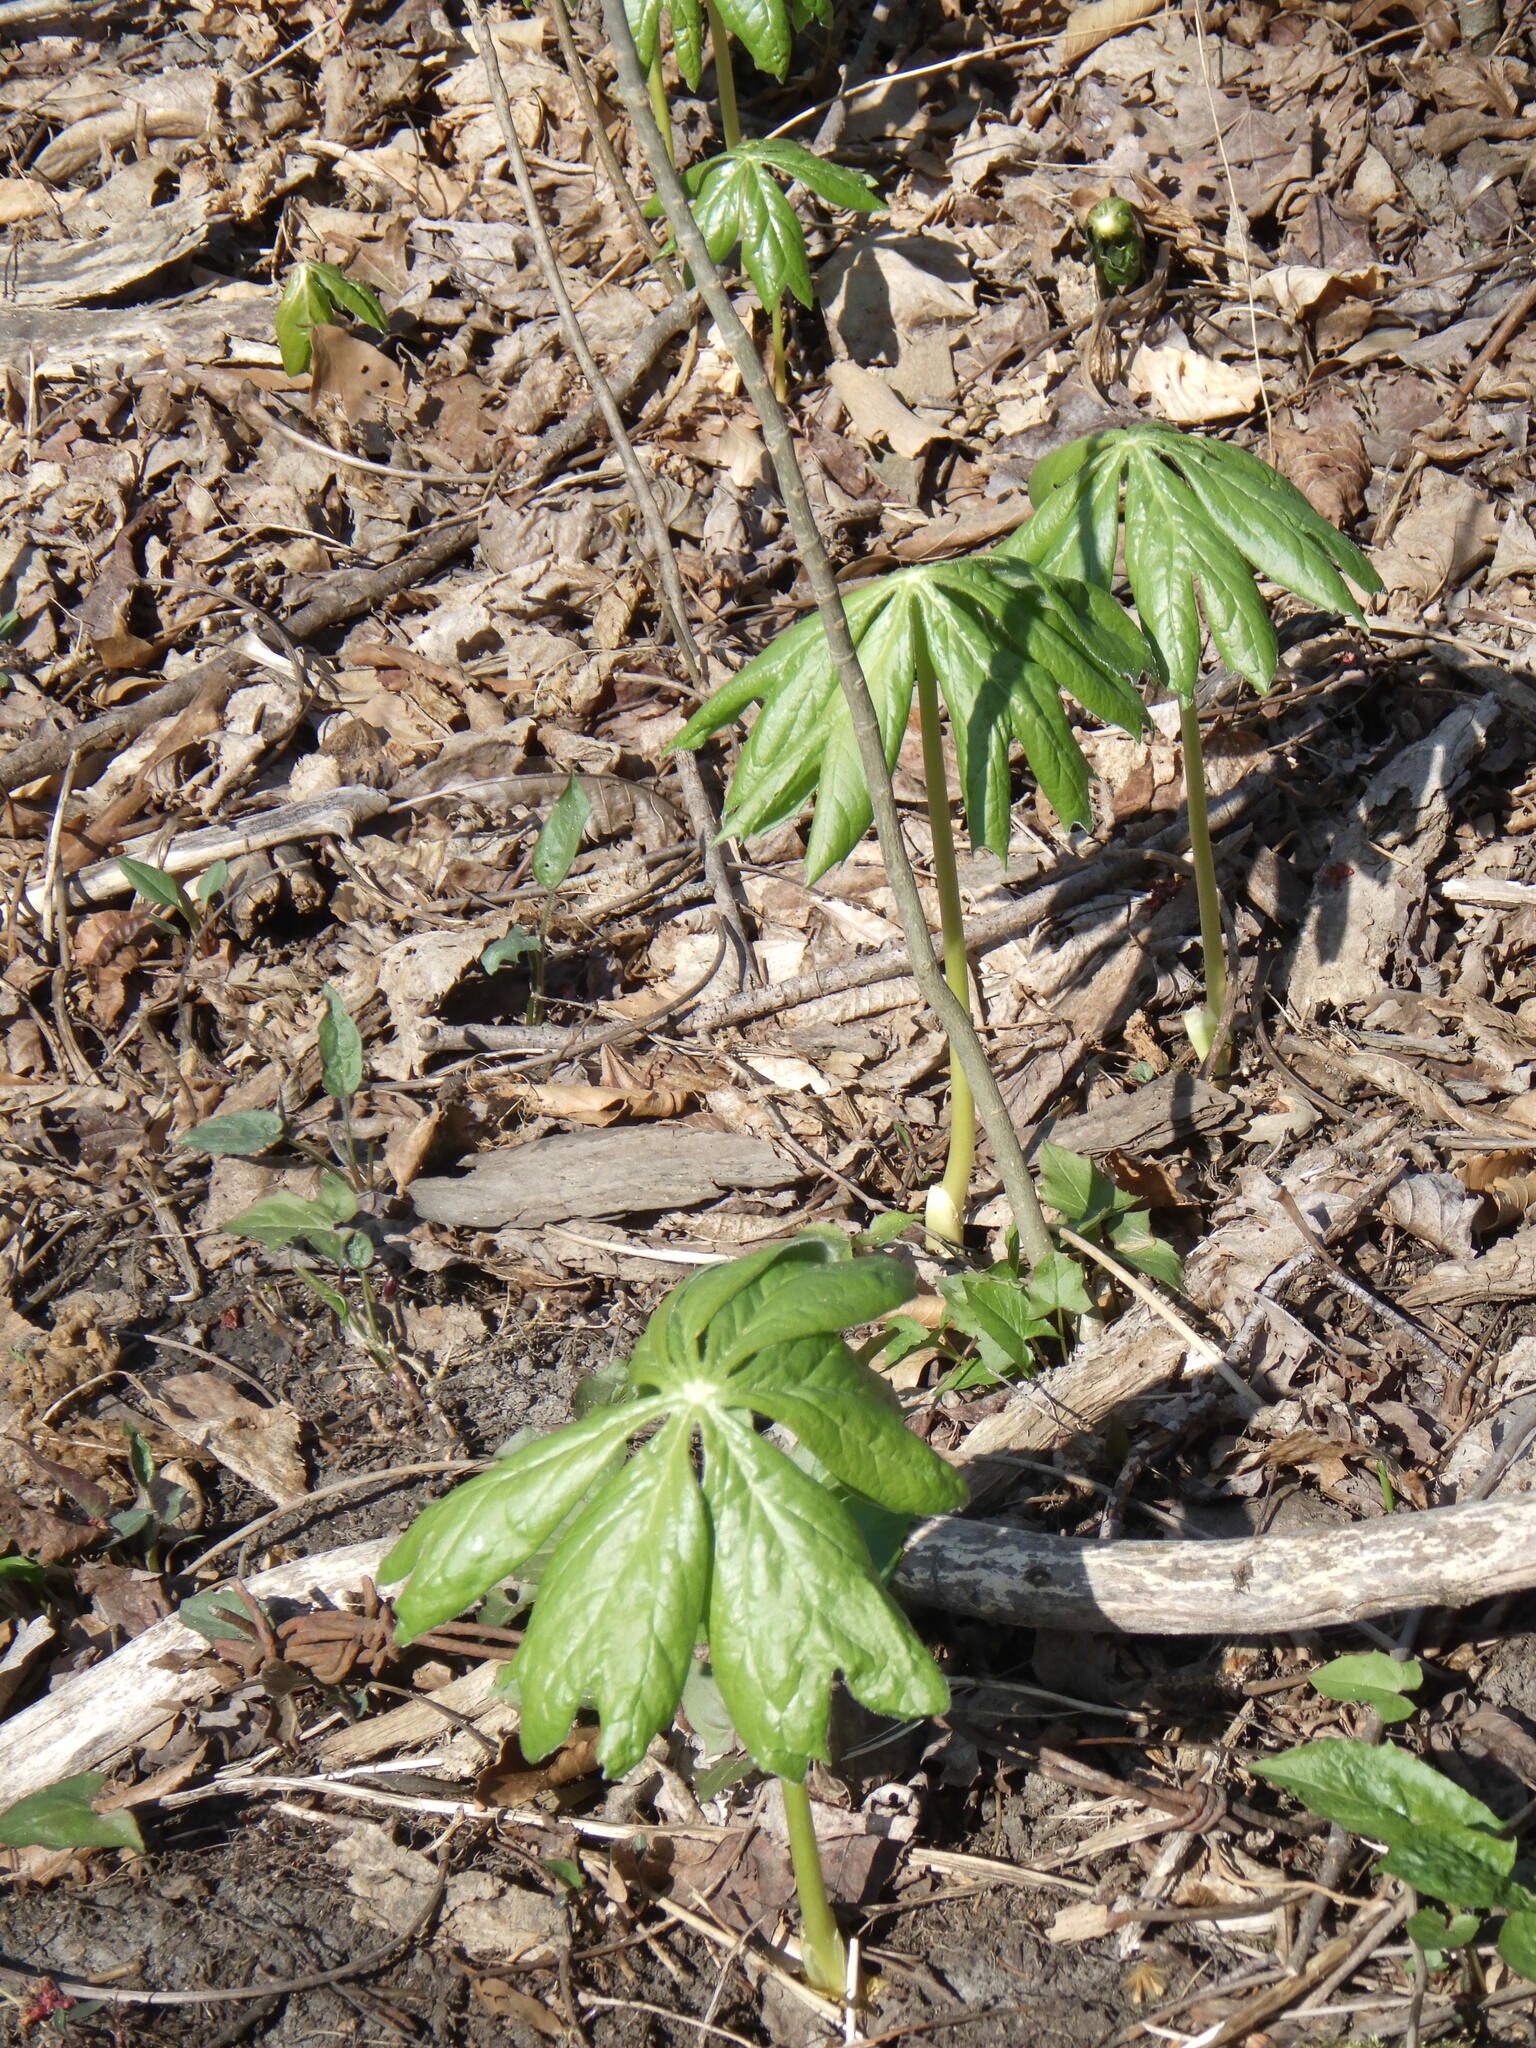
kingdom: Plantae
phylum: Tracheophyta
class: Magnoliopsida
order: Ranunculales
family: Berberidaceae
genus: Podophyllum
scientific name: Podophyllum peltatum
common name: Wild mandrake
